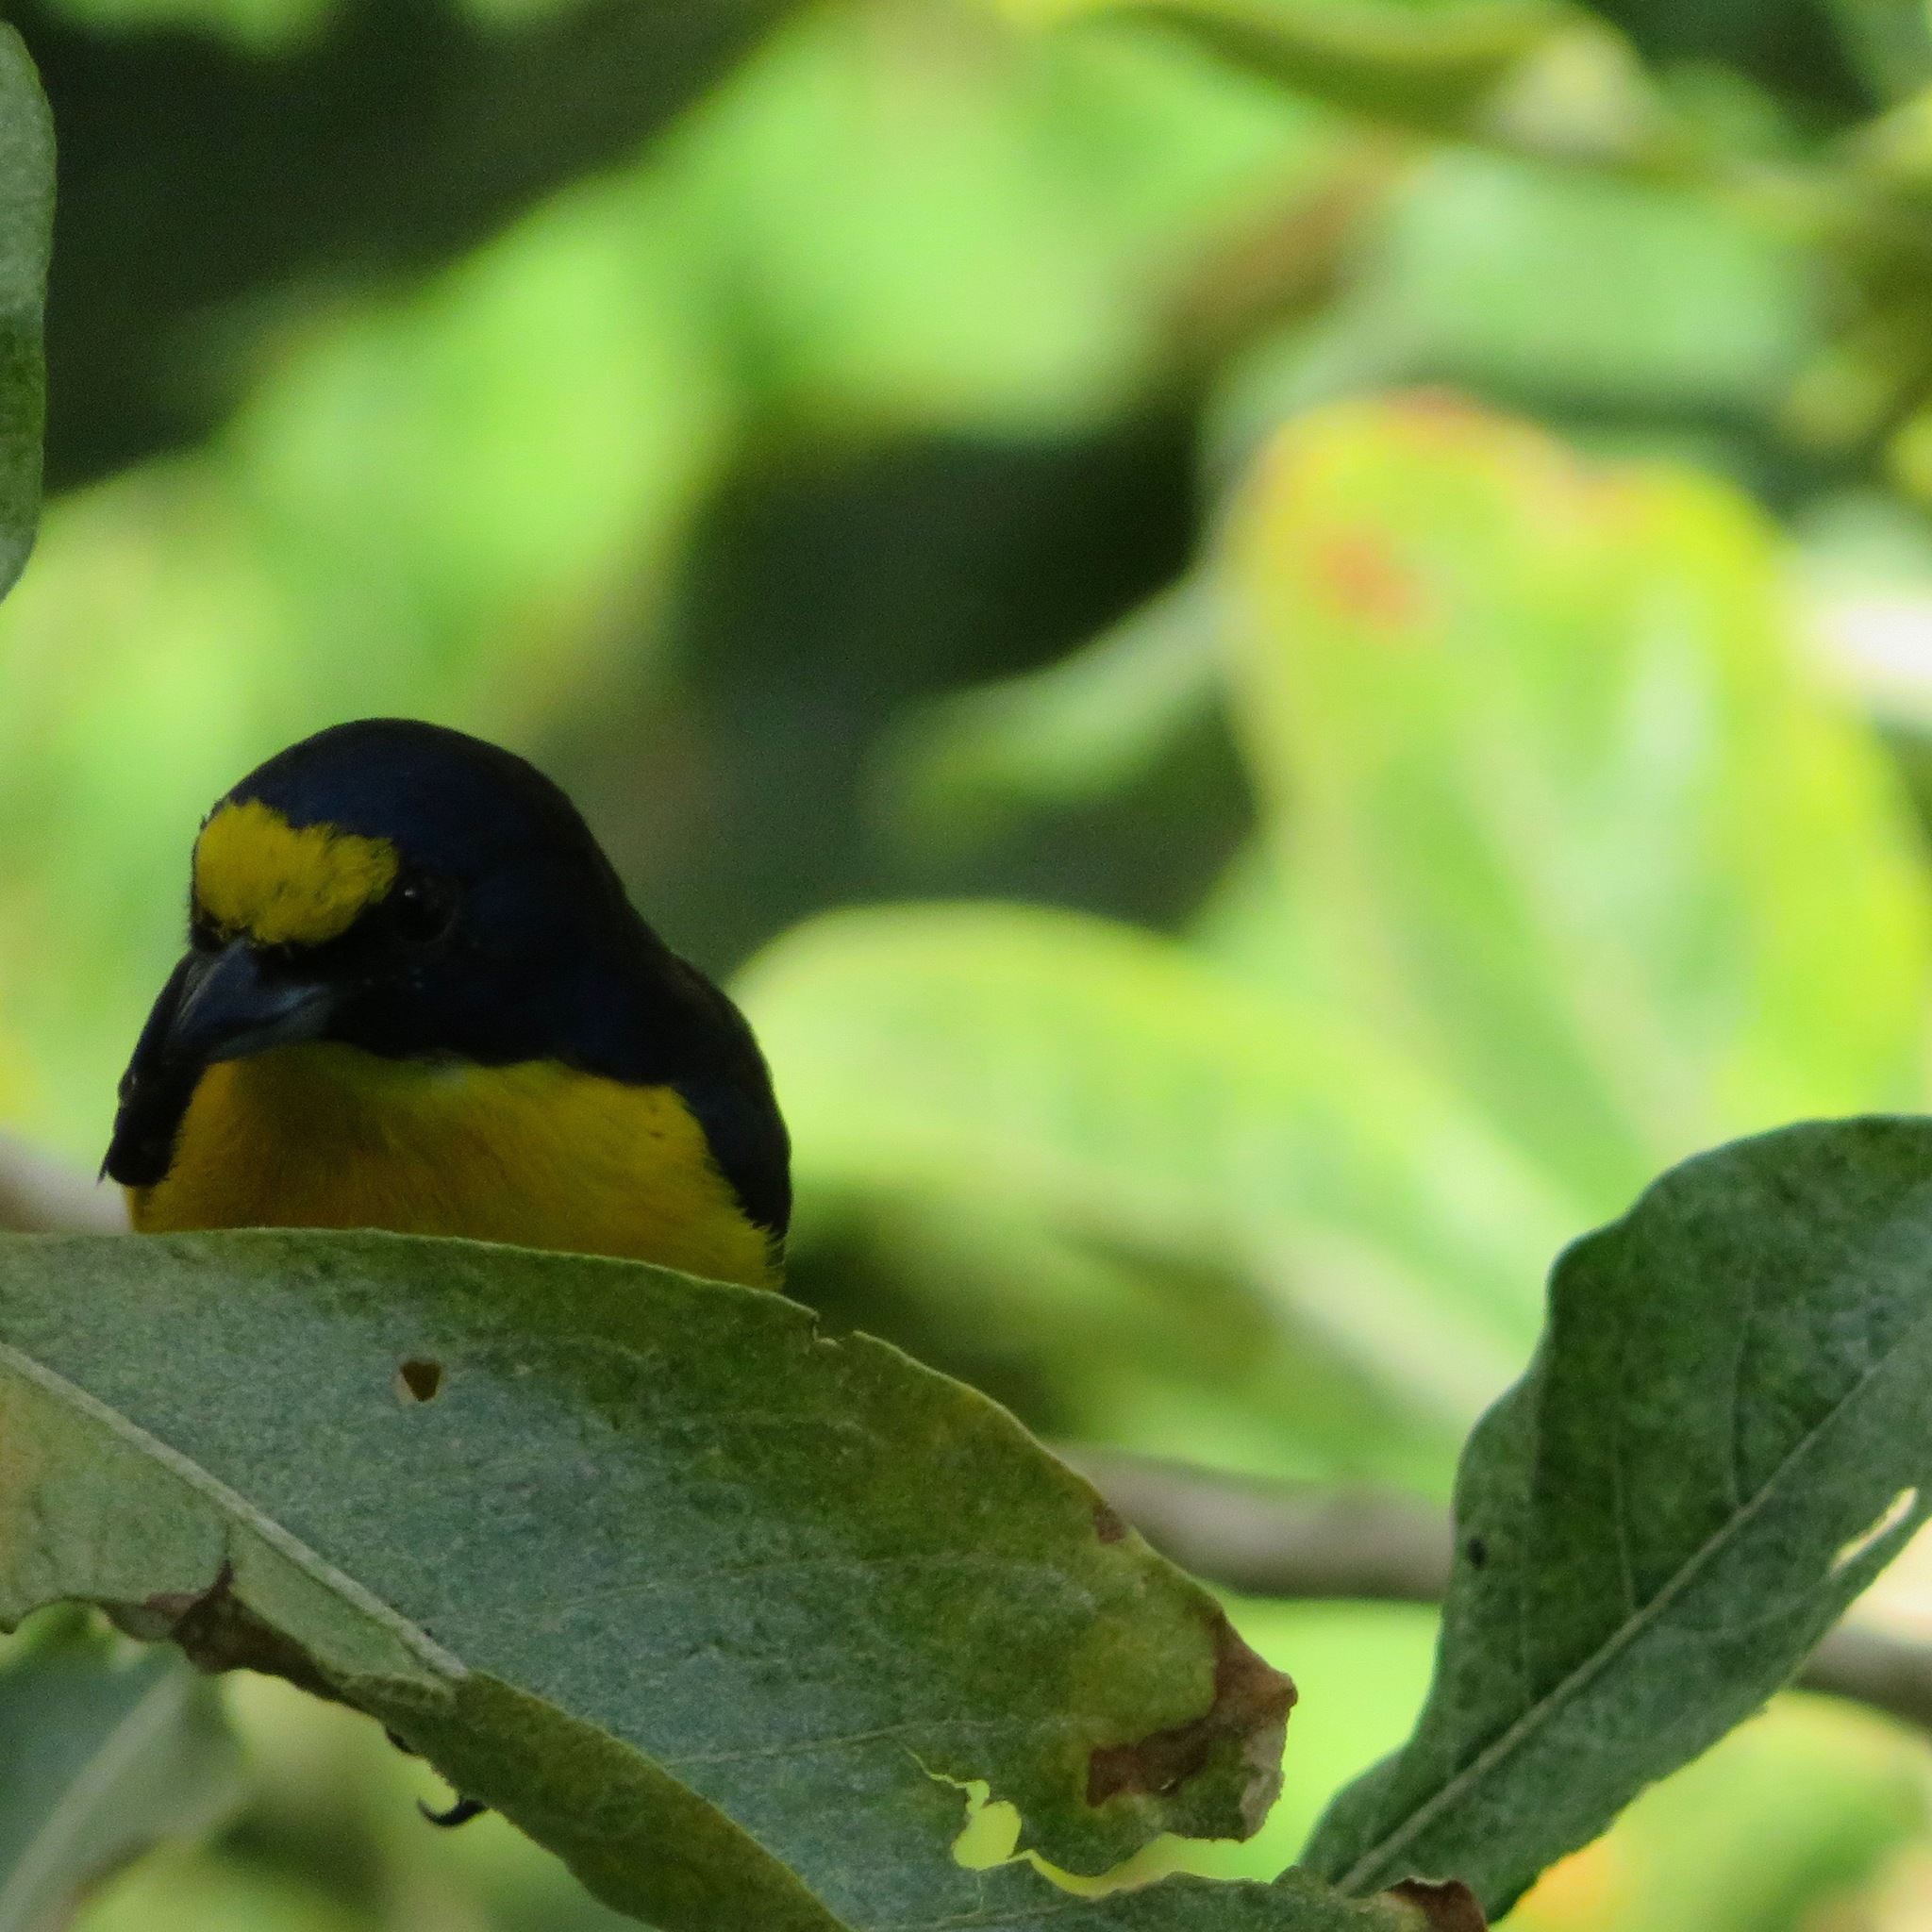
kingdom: Animalia
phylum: Chordata
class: Aves
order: Passeriformes
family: Fringillidae
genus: Euphonia
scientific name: Euphonia hirundinacea
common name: Yellow-throated euphonia
